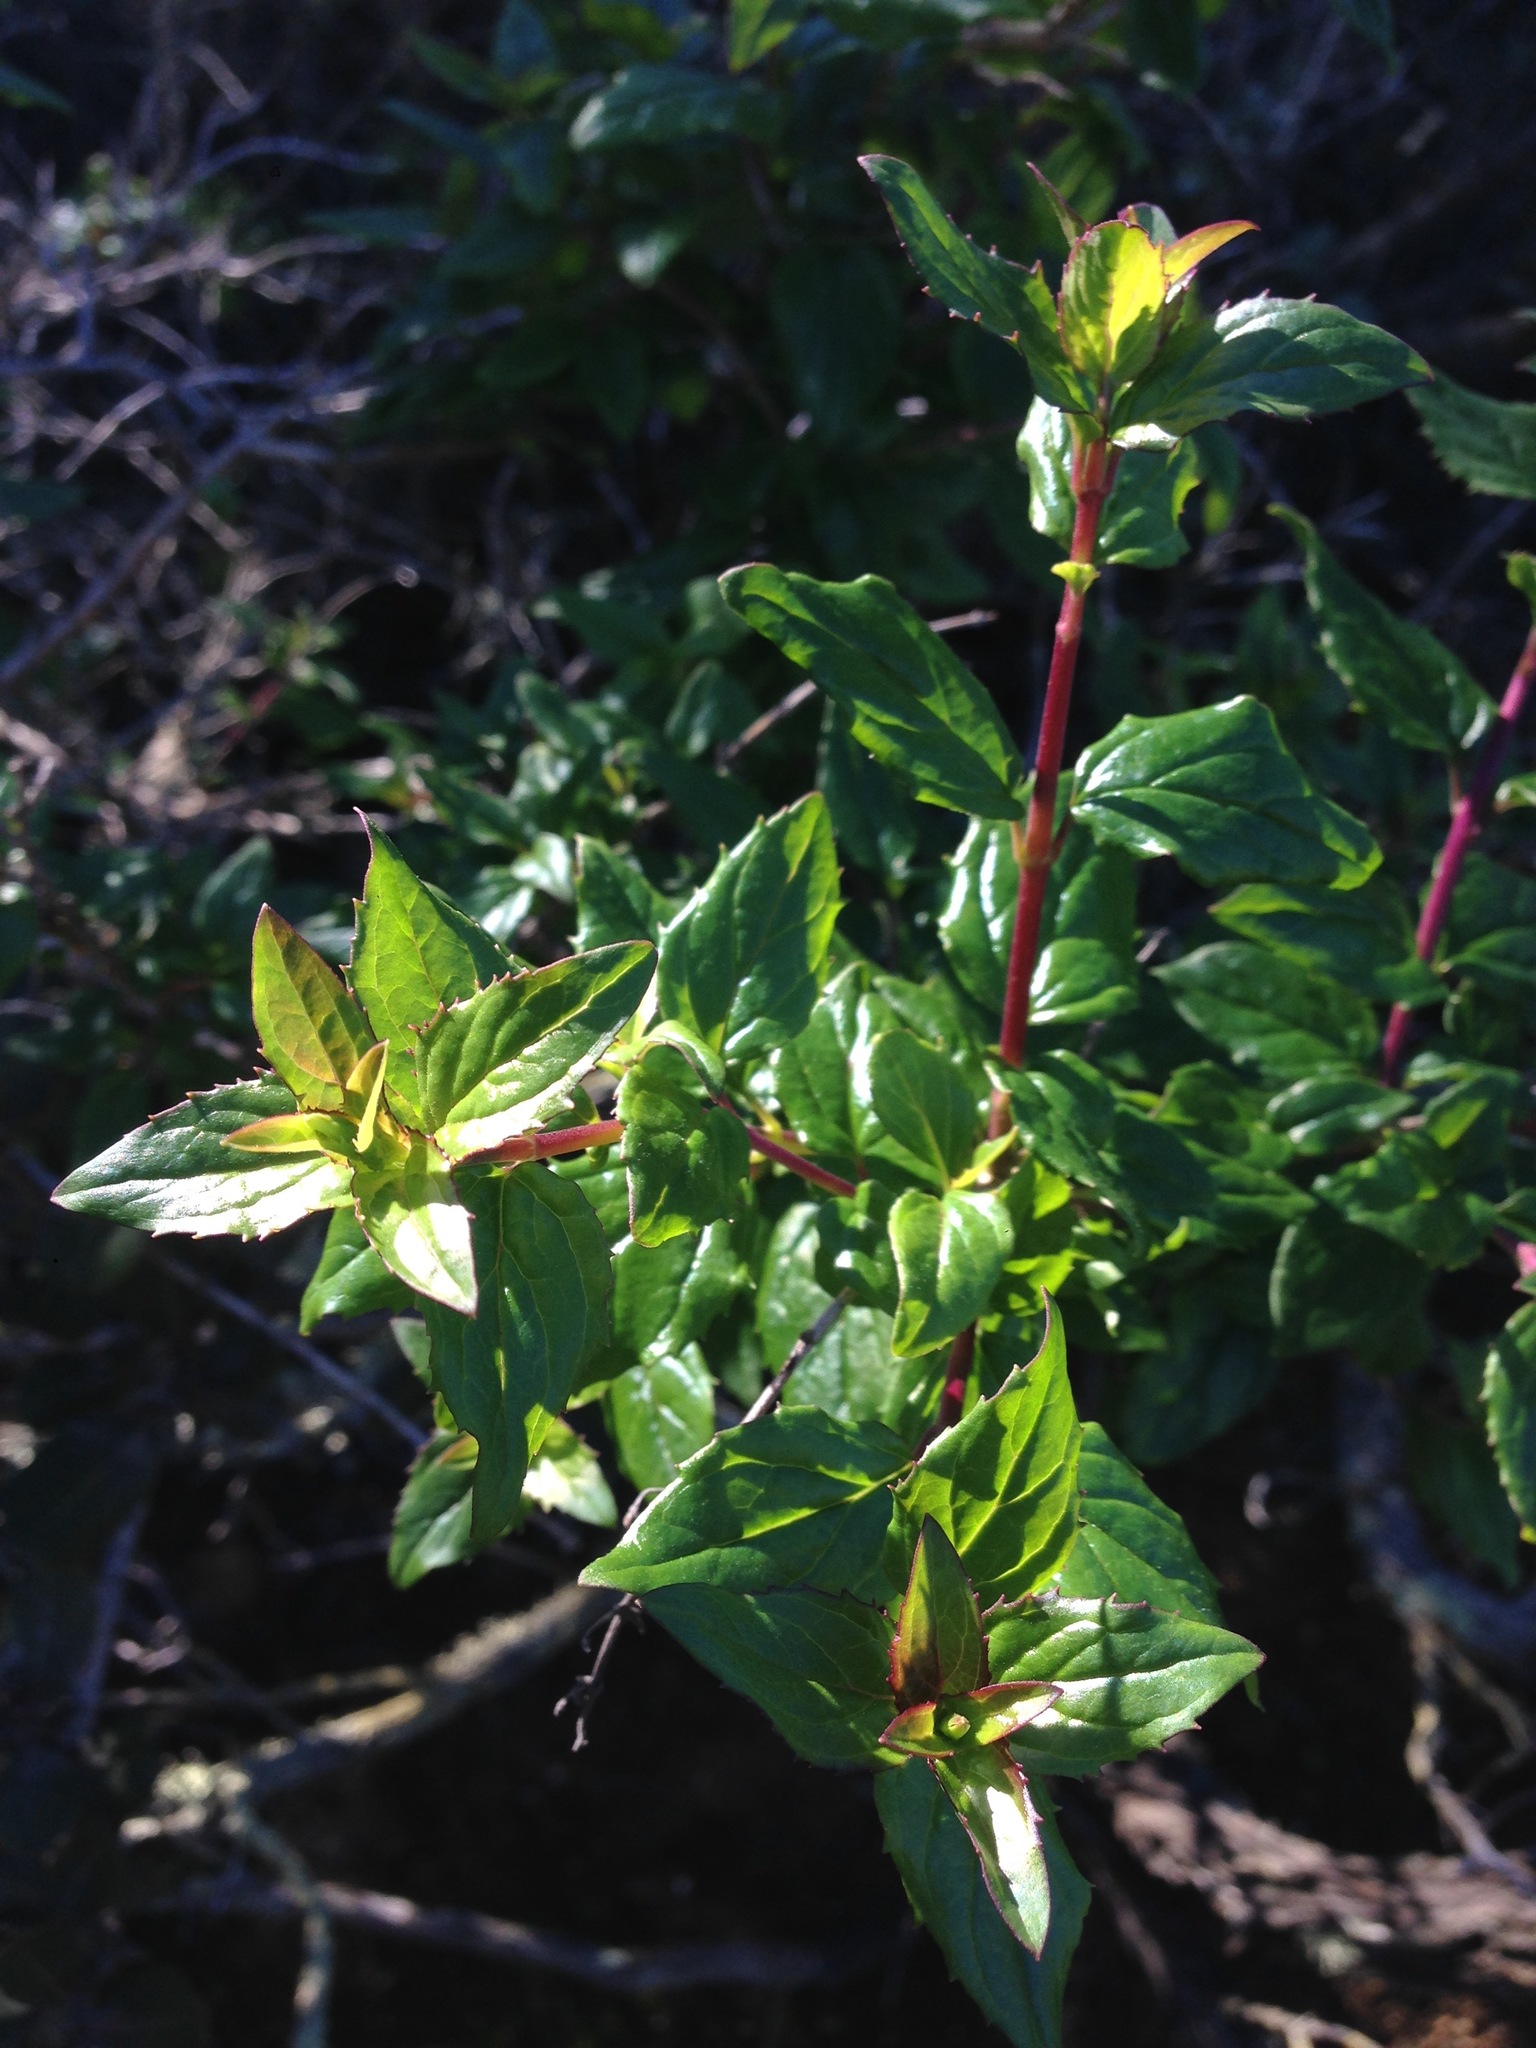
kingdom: Plantae
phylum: Tracheophyta
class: Magnoliopsida
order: Lamiales
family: Plantaginaceae
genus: Keckiella
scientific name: Keckiella cordifolia
